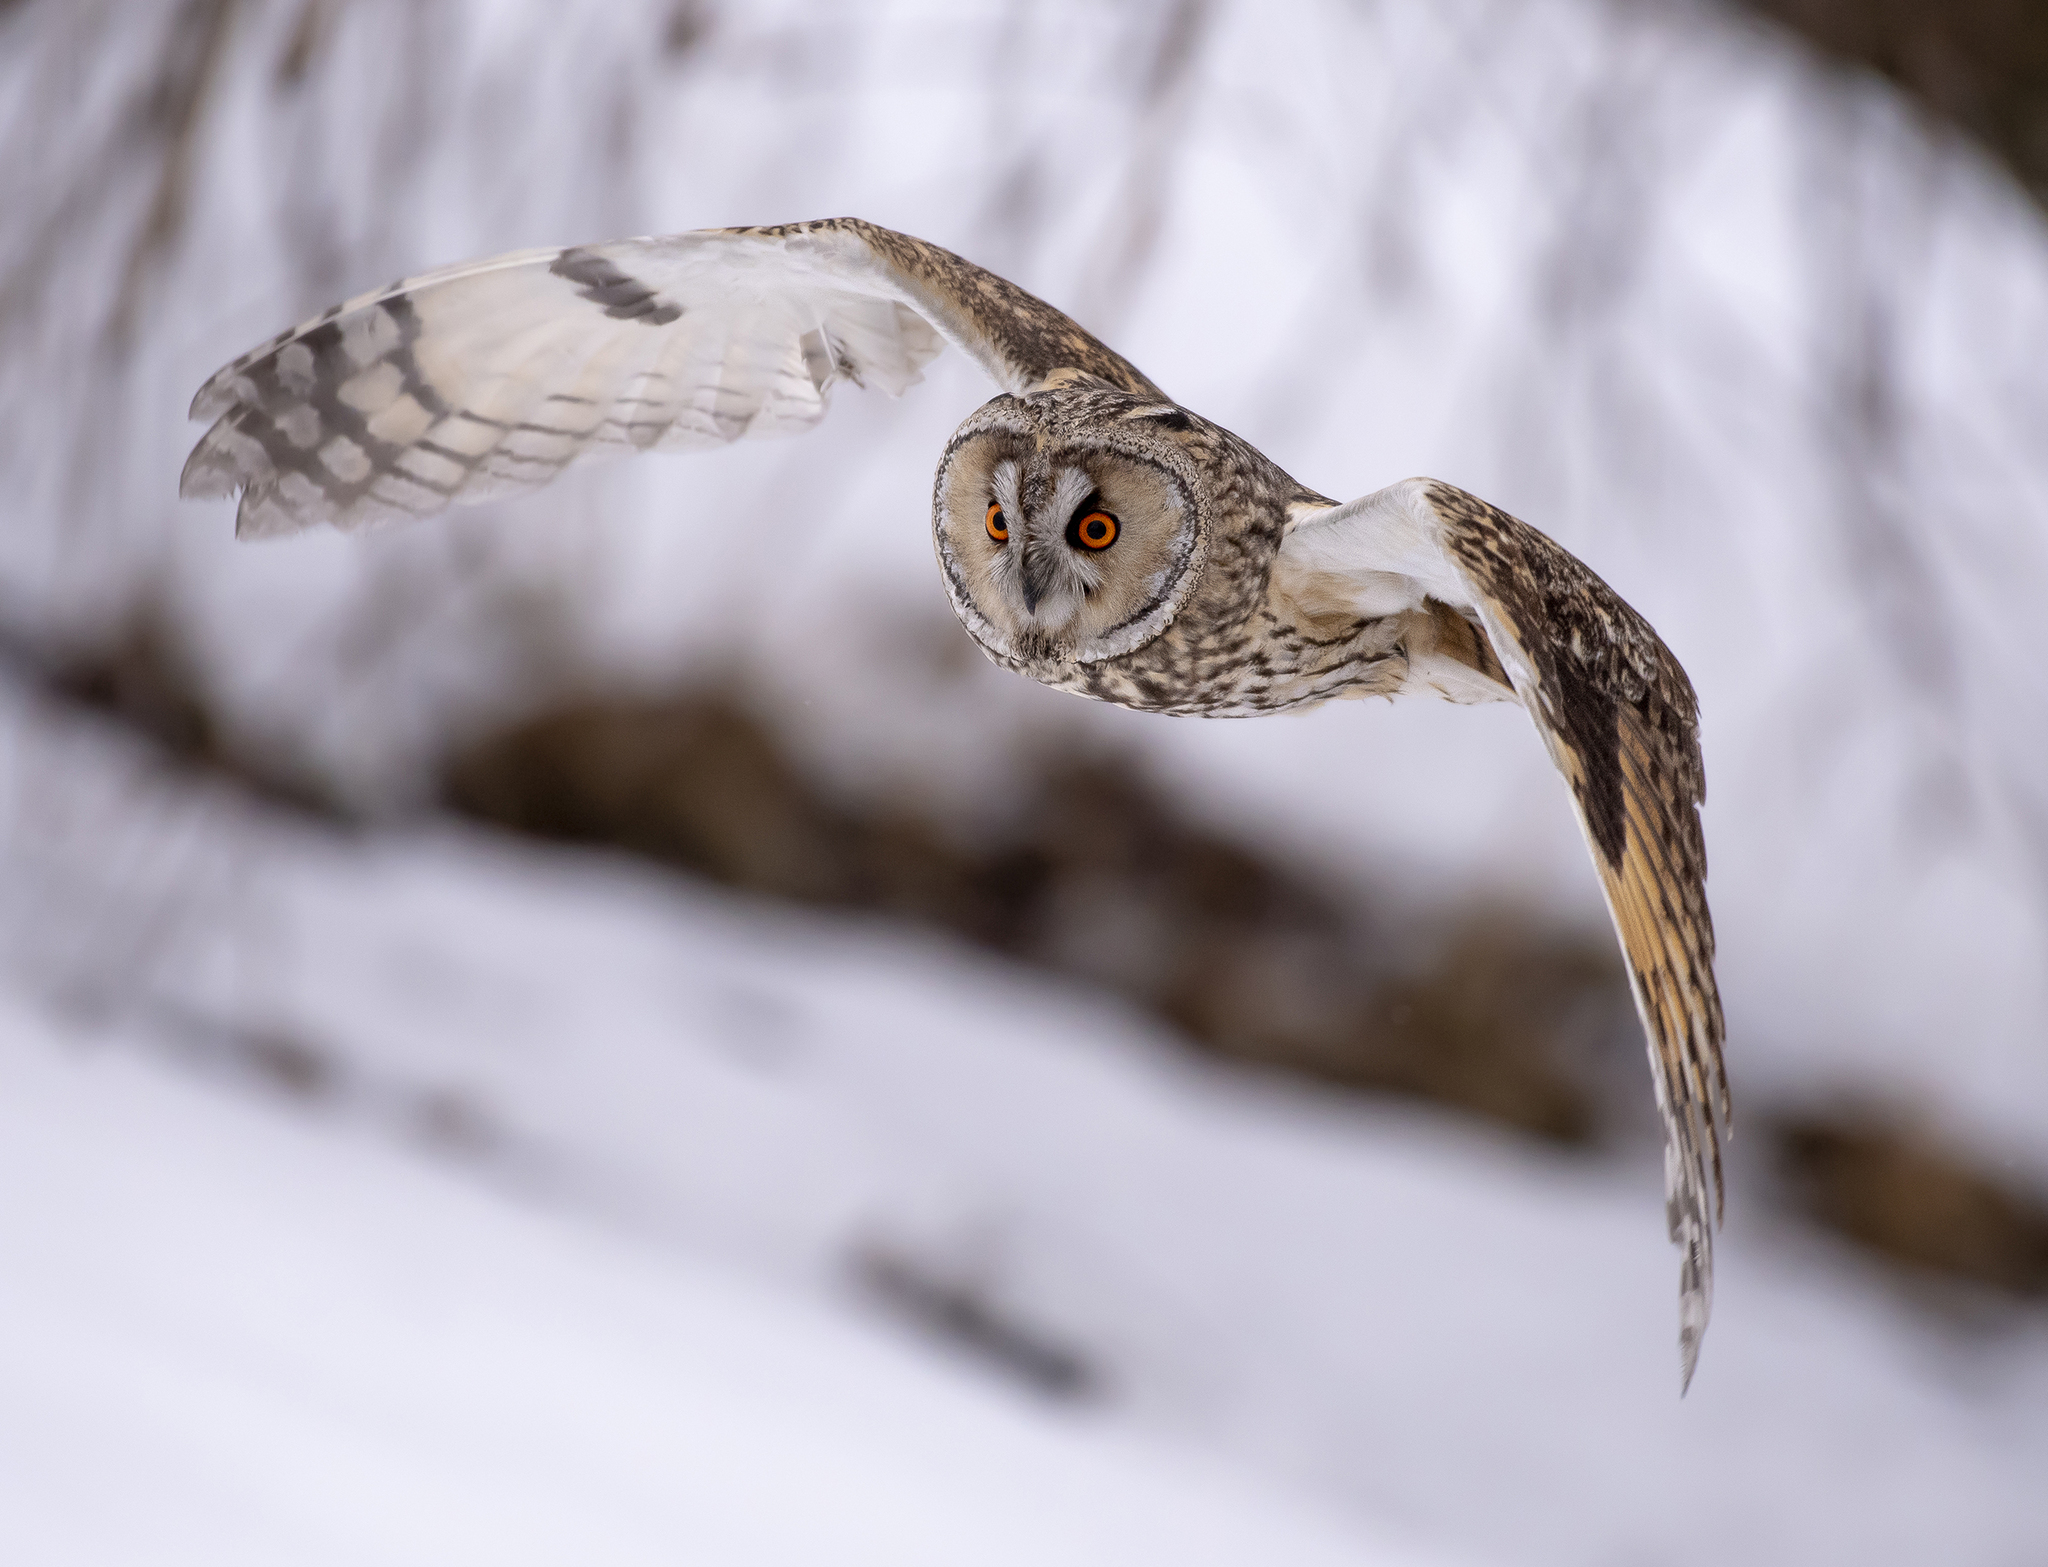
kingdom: Animalia
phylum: Chordata
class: Aves
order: Strigiformes
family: Strigidae
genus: Asio
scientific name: Asio otus
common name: Long-eared owl
